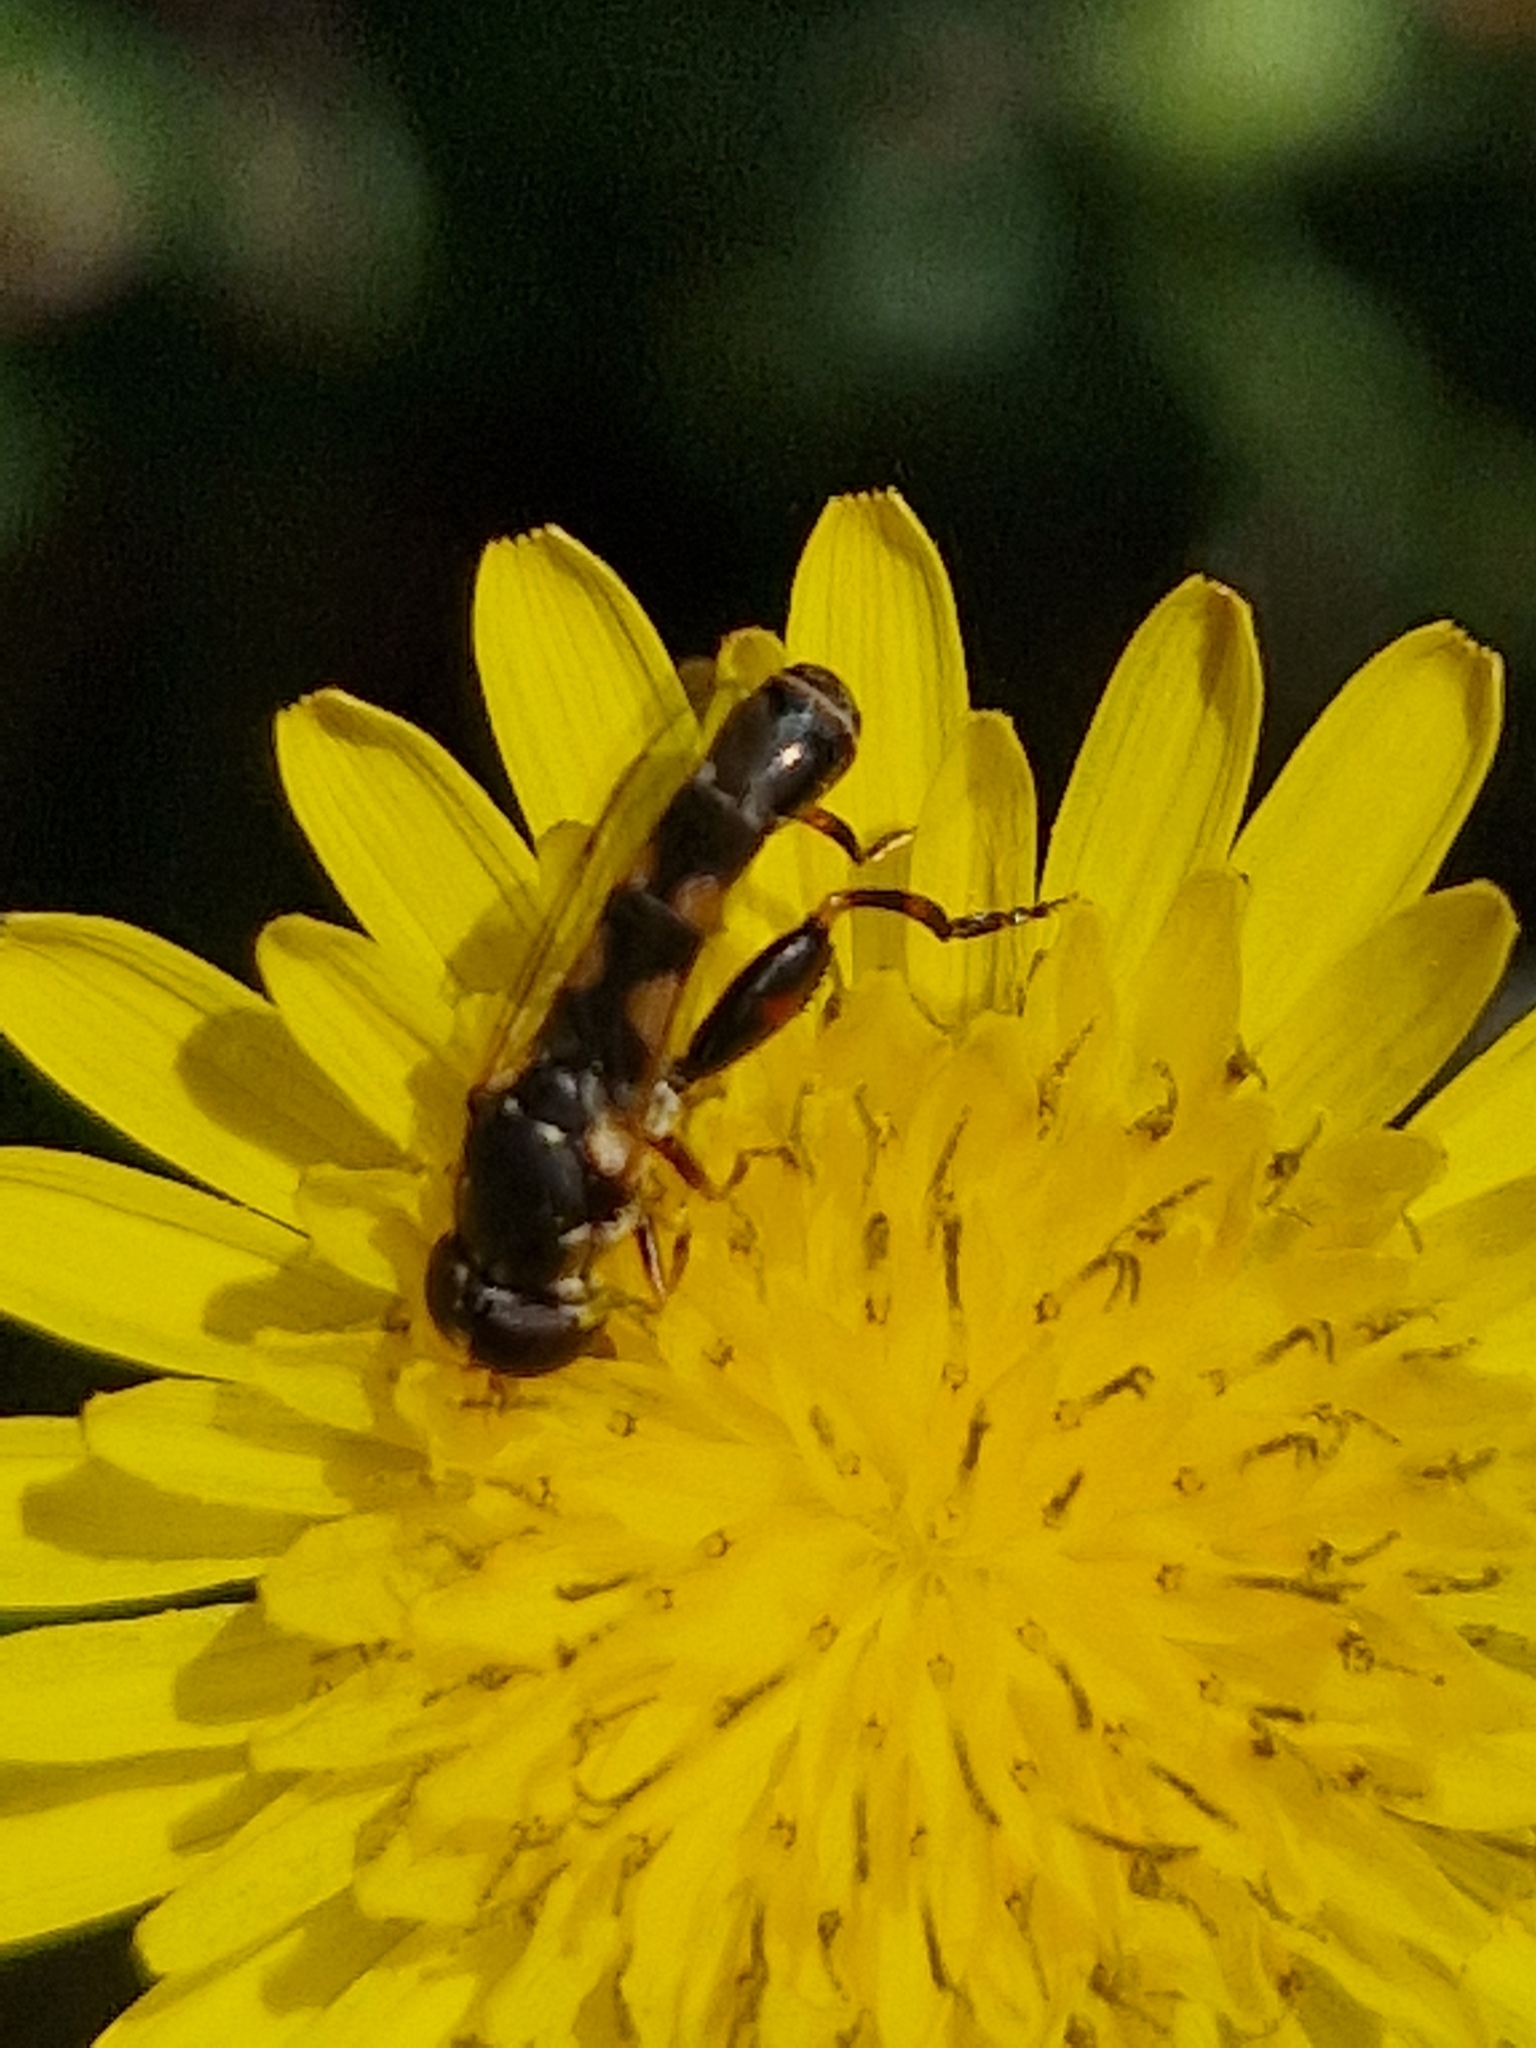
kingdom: Animalia
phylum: Arthropoda
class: Insecta
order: Diptera
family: Syrphidae
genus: Syritta
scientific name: Syritta pipiens
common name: Hover fly
